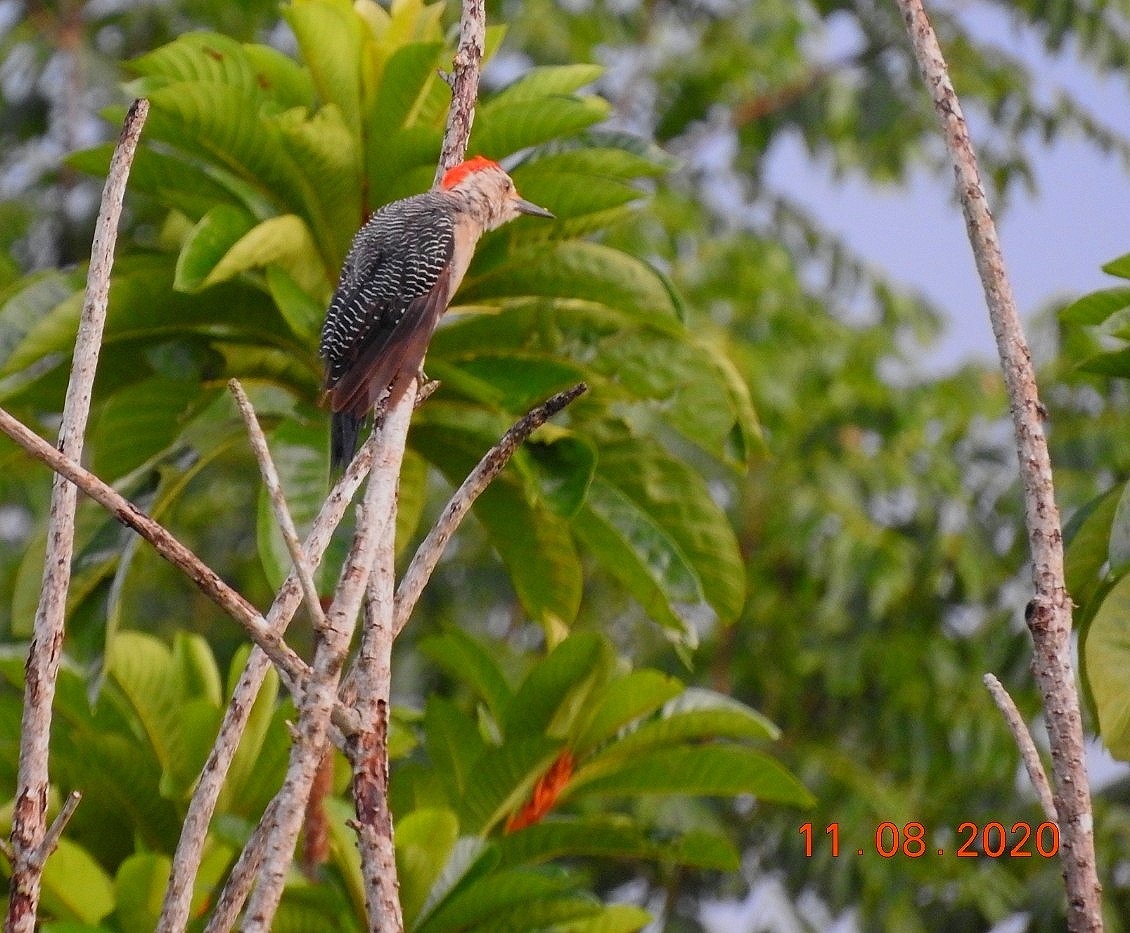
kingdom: Animalia
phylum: Chordata
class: Aves
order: Piciformes
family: Picidae
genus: Melanerpes
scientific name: Melanerpes aurifrons
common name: Golden-fronted woodpecker
